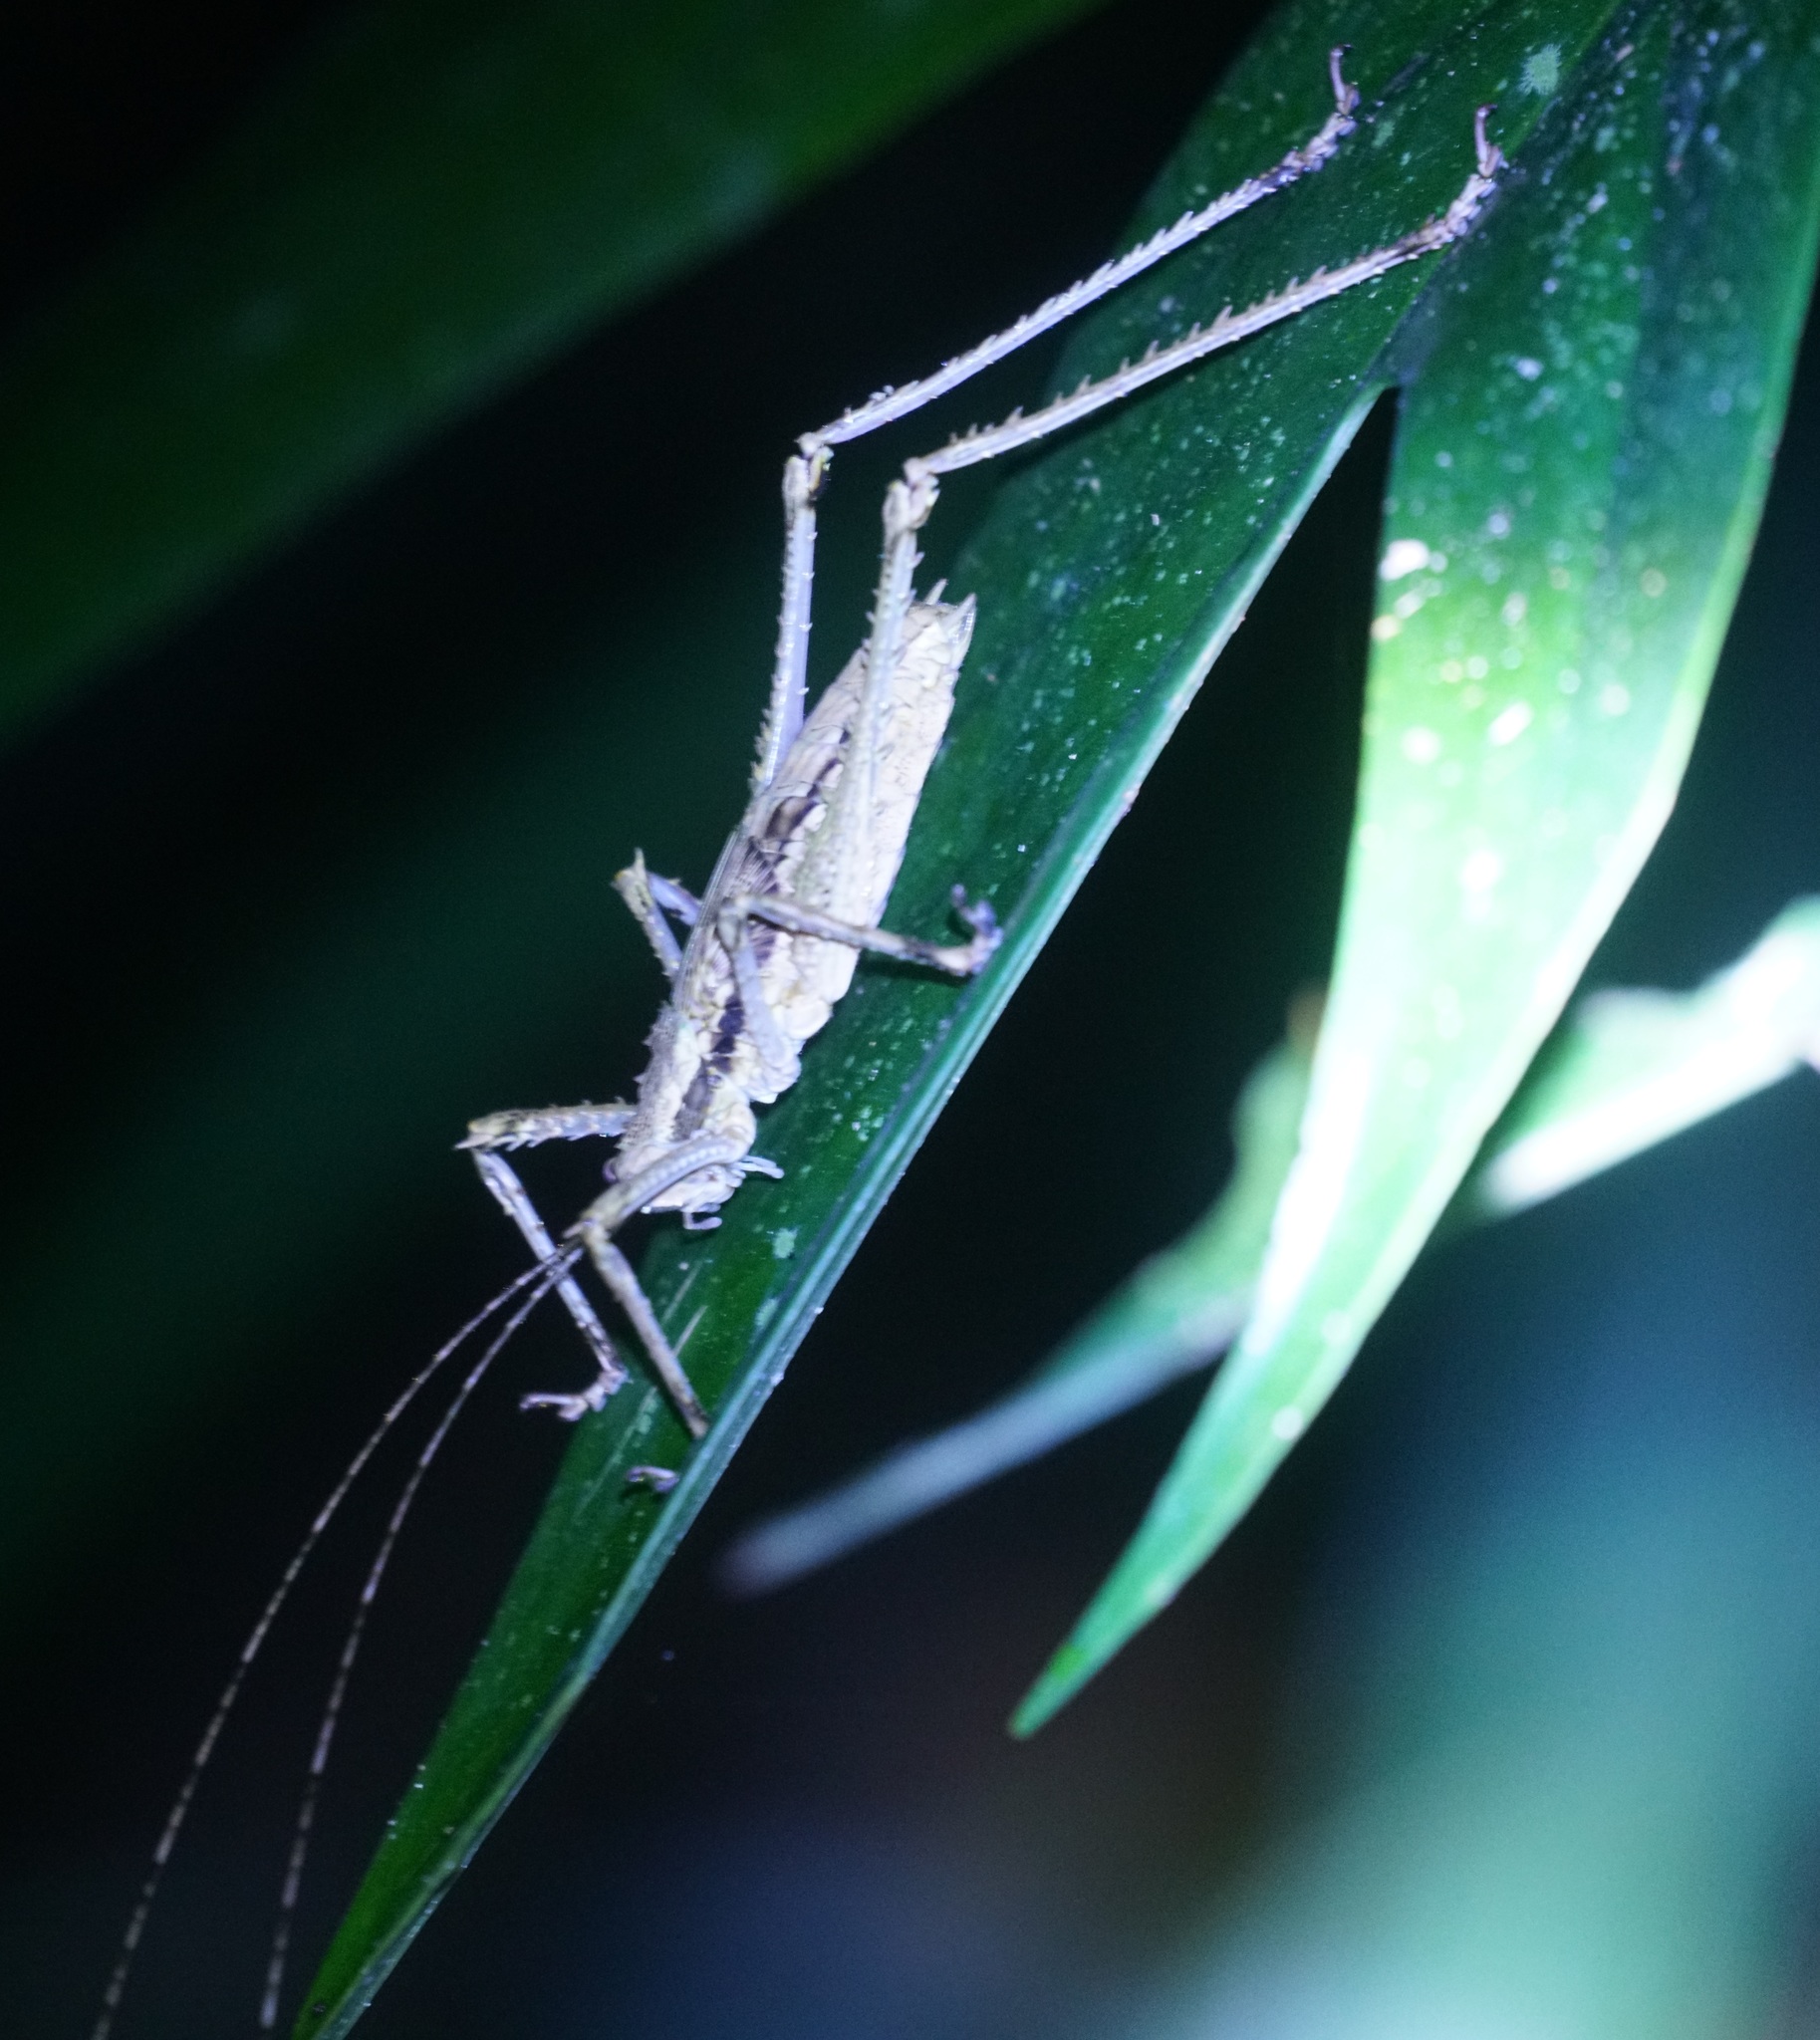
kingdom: Animalia
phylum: Arthropoda
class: Insecta
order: Orthoptera
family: Tettigoniidae
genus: Phricta
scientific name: Phricta spinosa
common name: Giant spiny forest katydid
